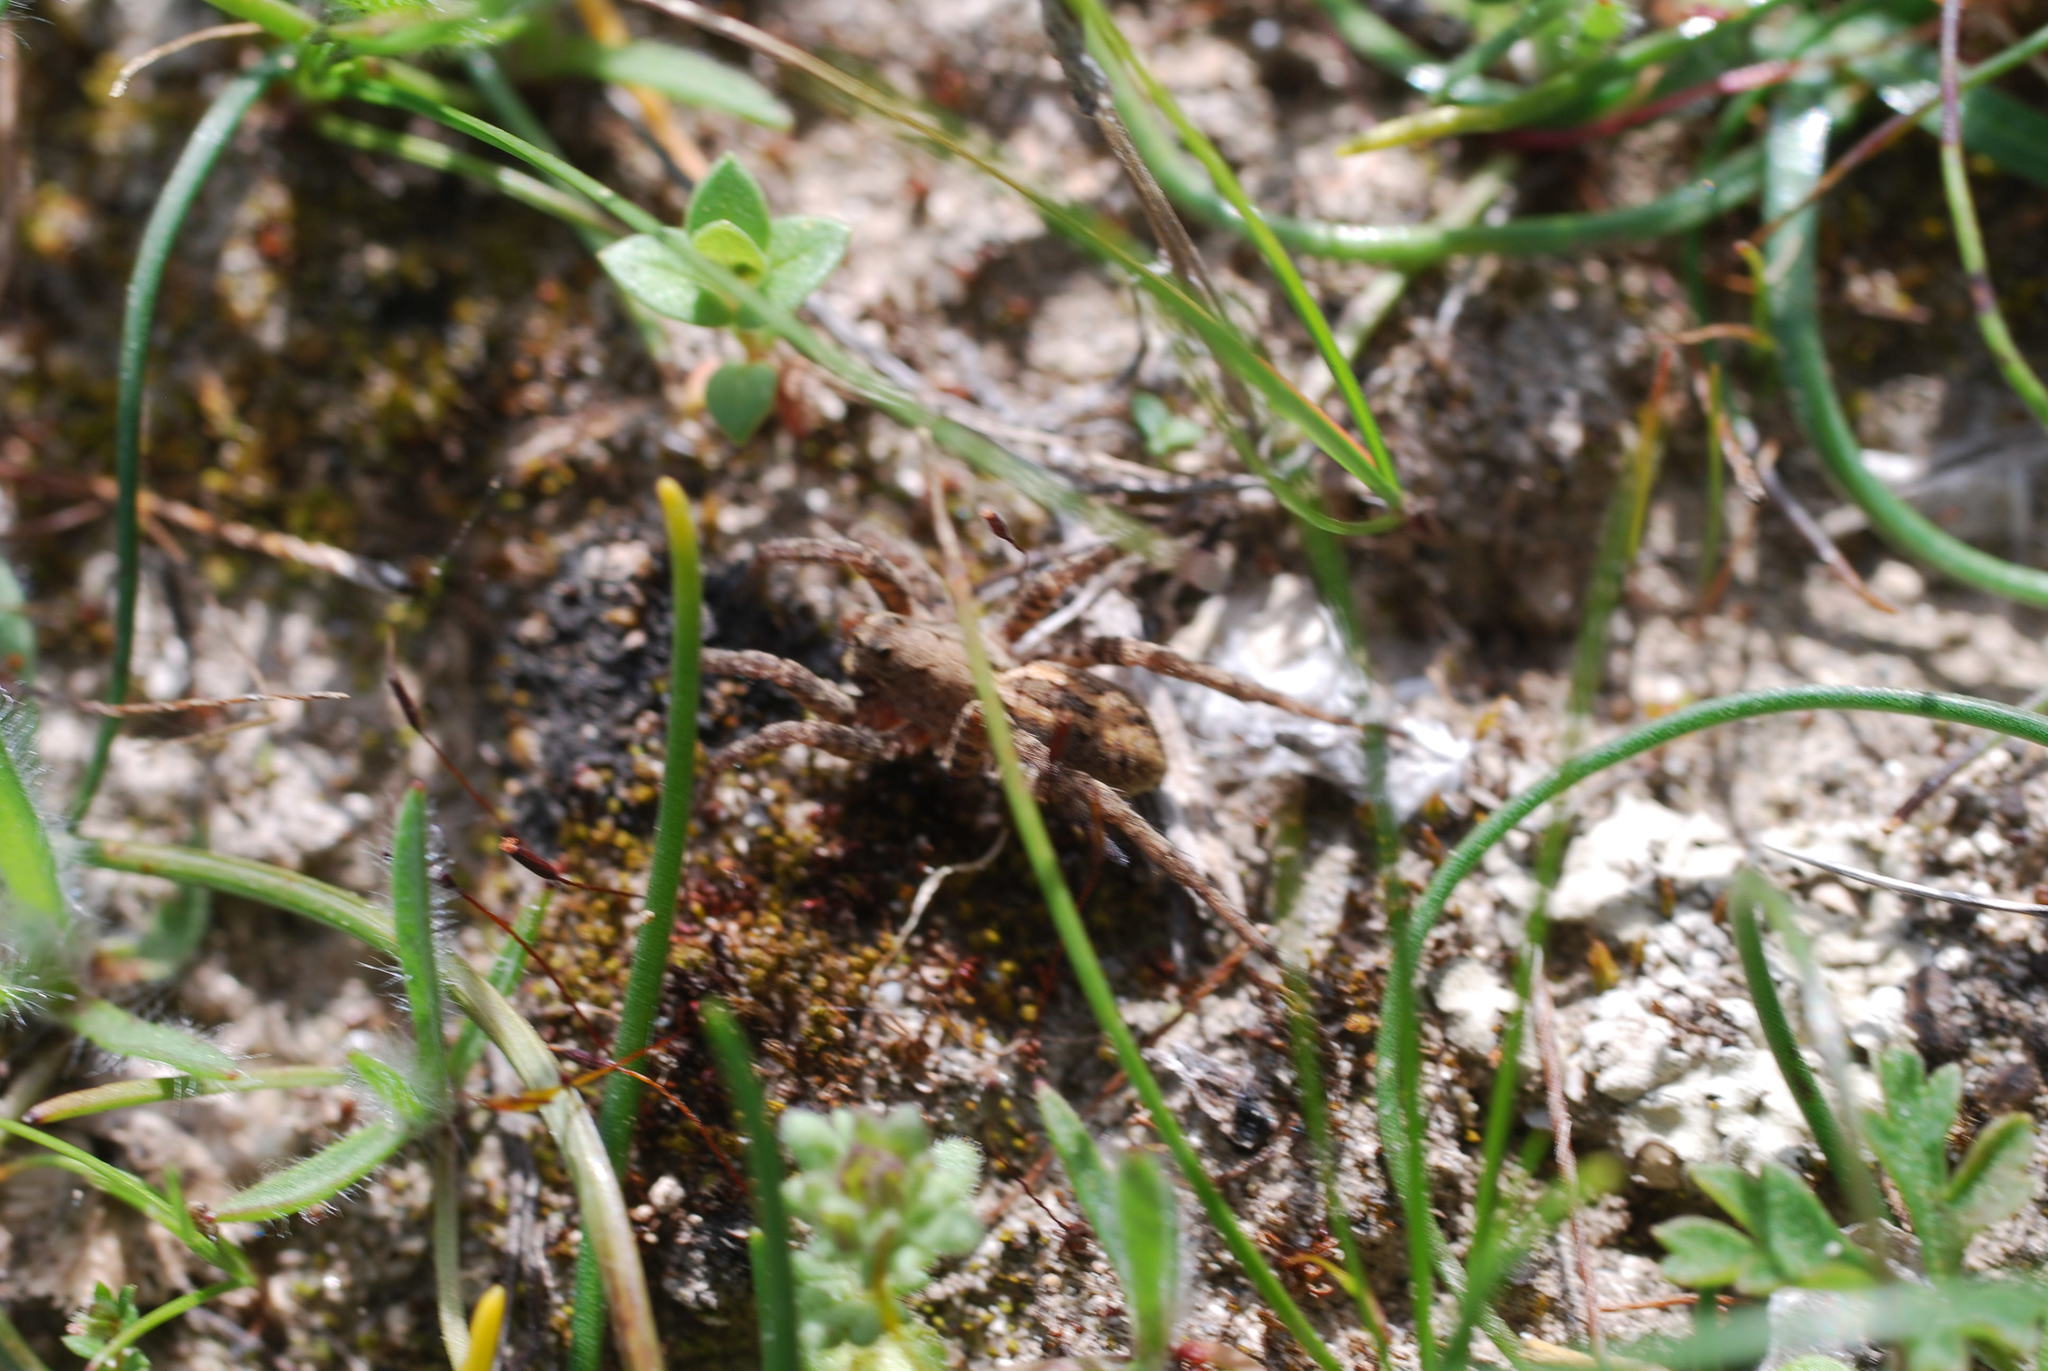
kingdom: Animalia
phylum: Arthropoda
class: Arachnida
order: Araneae
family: Lycosidae
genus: Alopecosa
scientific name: Alopecosa
